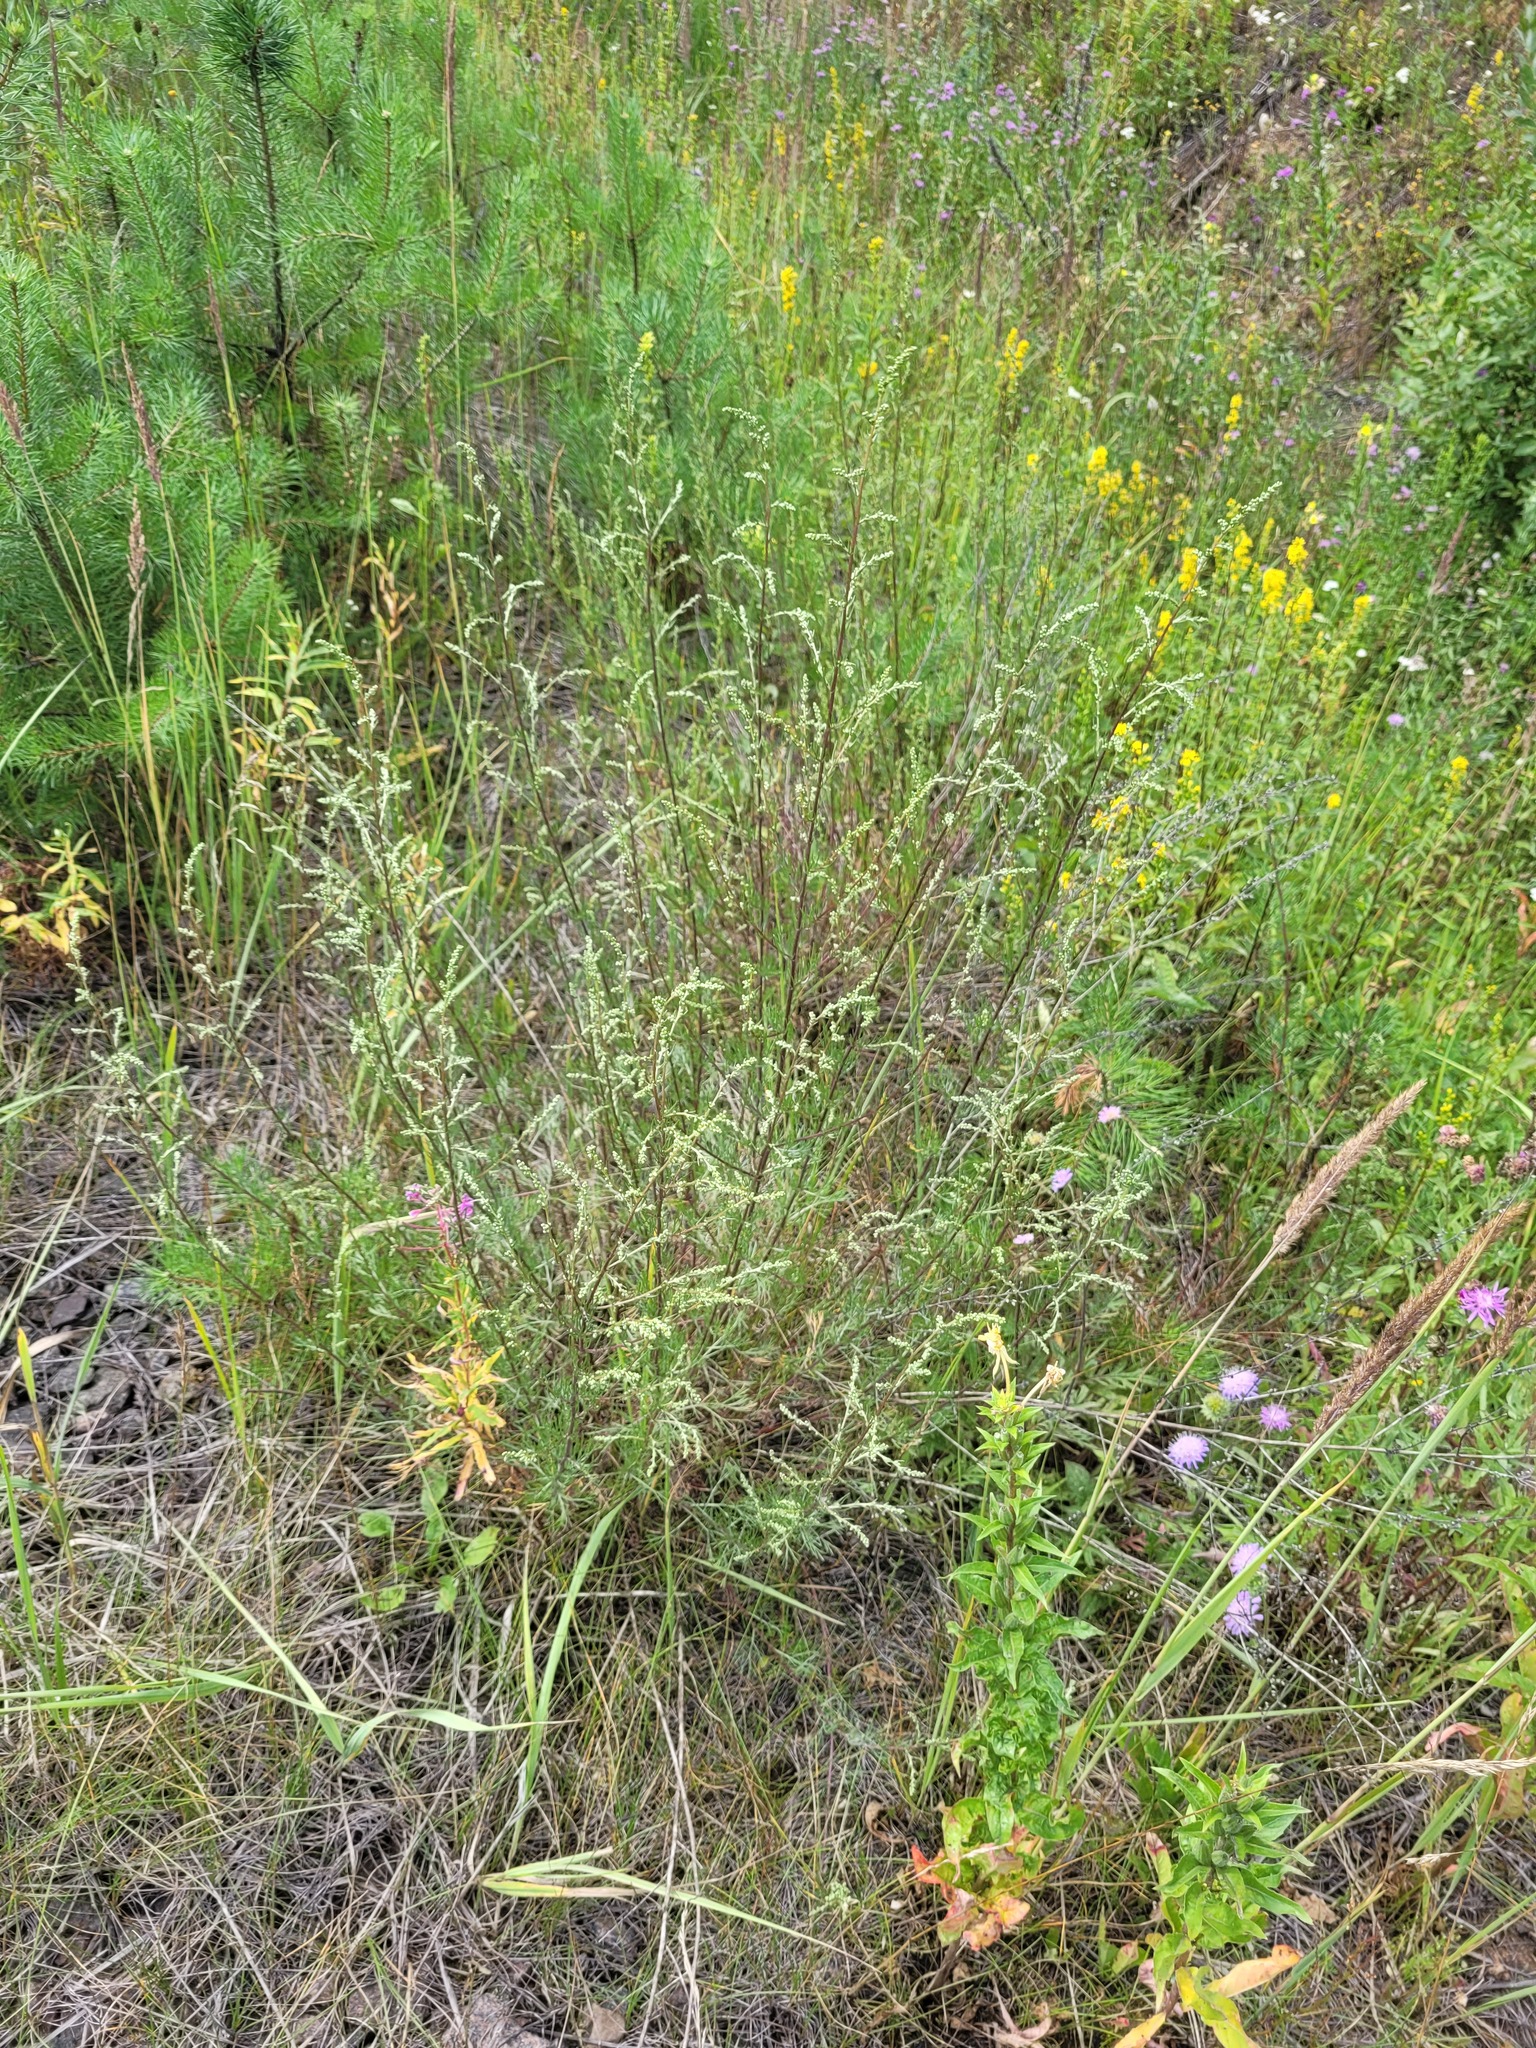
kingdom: Plantae
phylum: Tracheophyta
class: Magnoliopsida
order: Asterales
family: Asteraceae
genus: Artemisia
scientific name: Artemisia campestris
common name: Field wormwood
